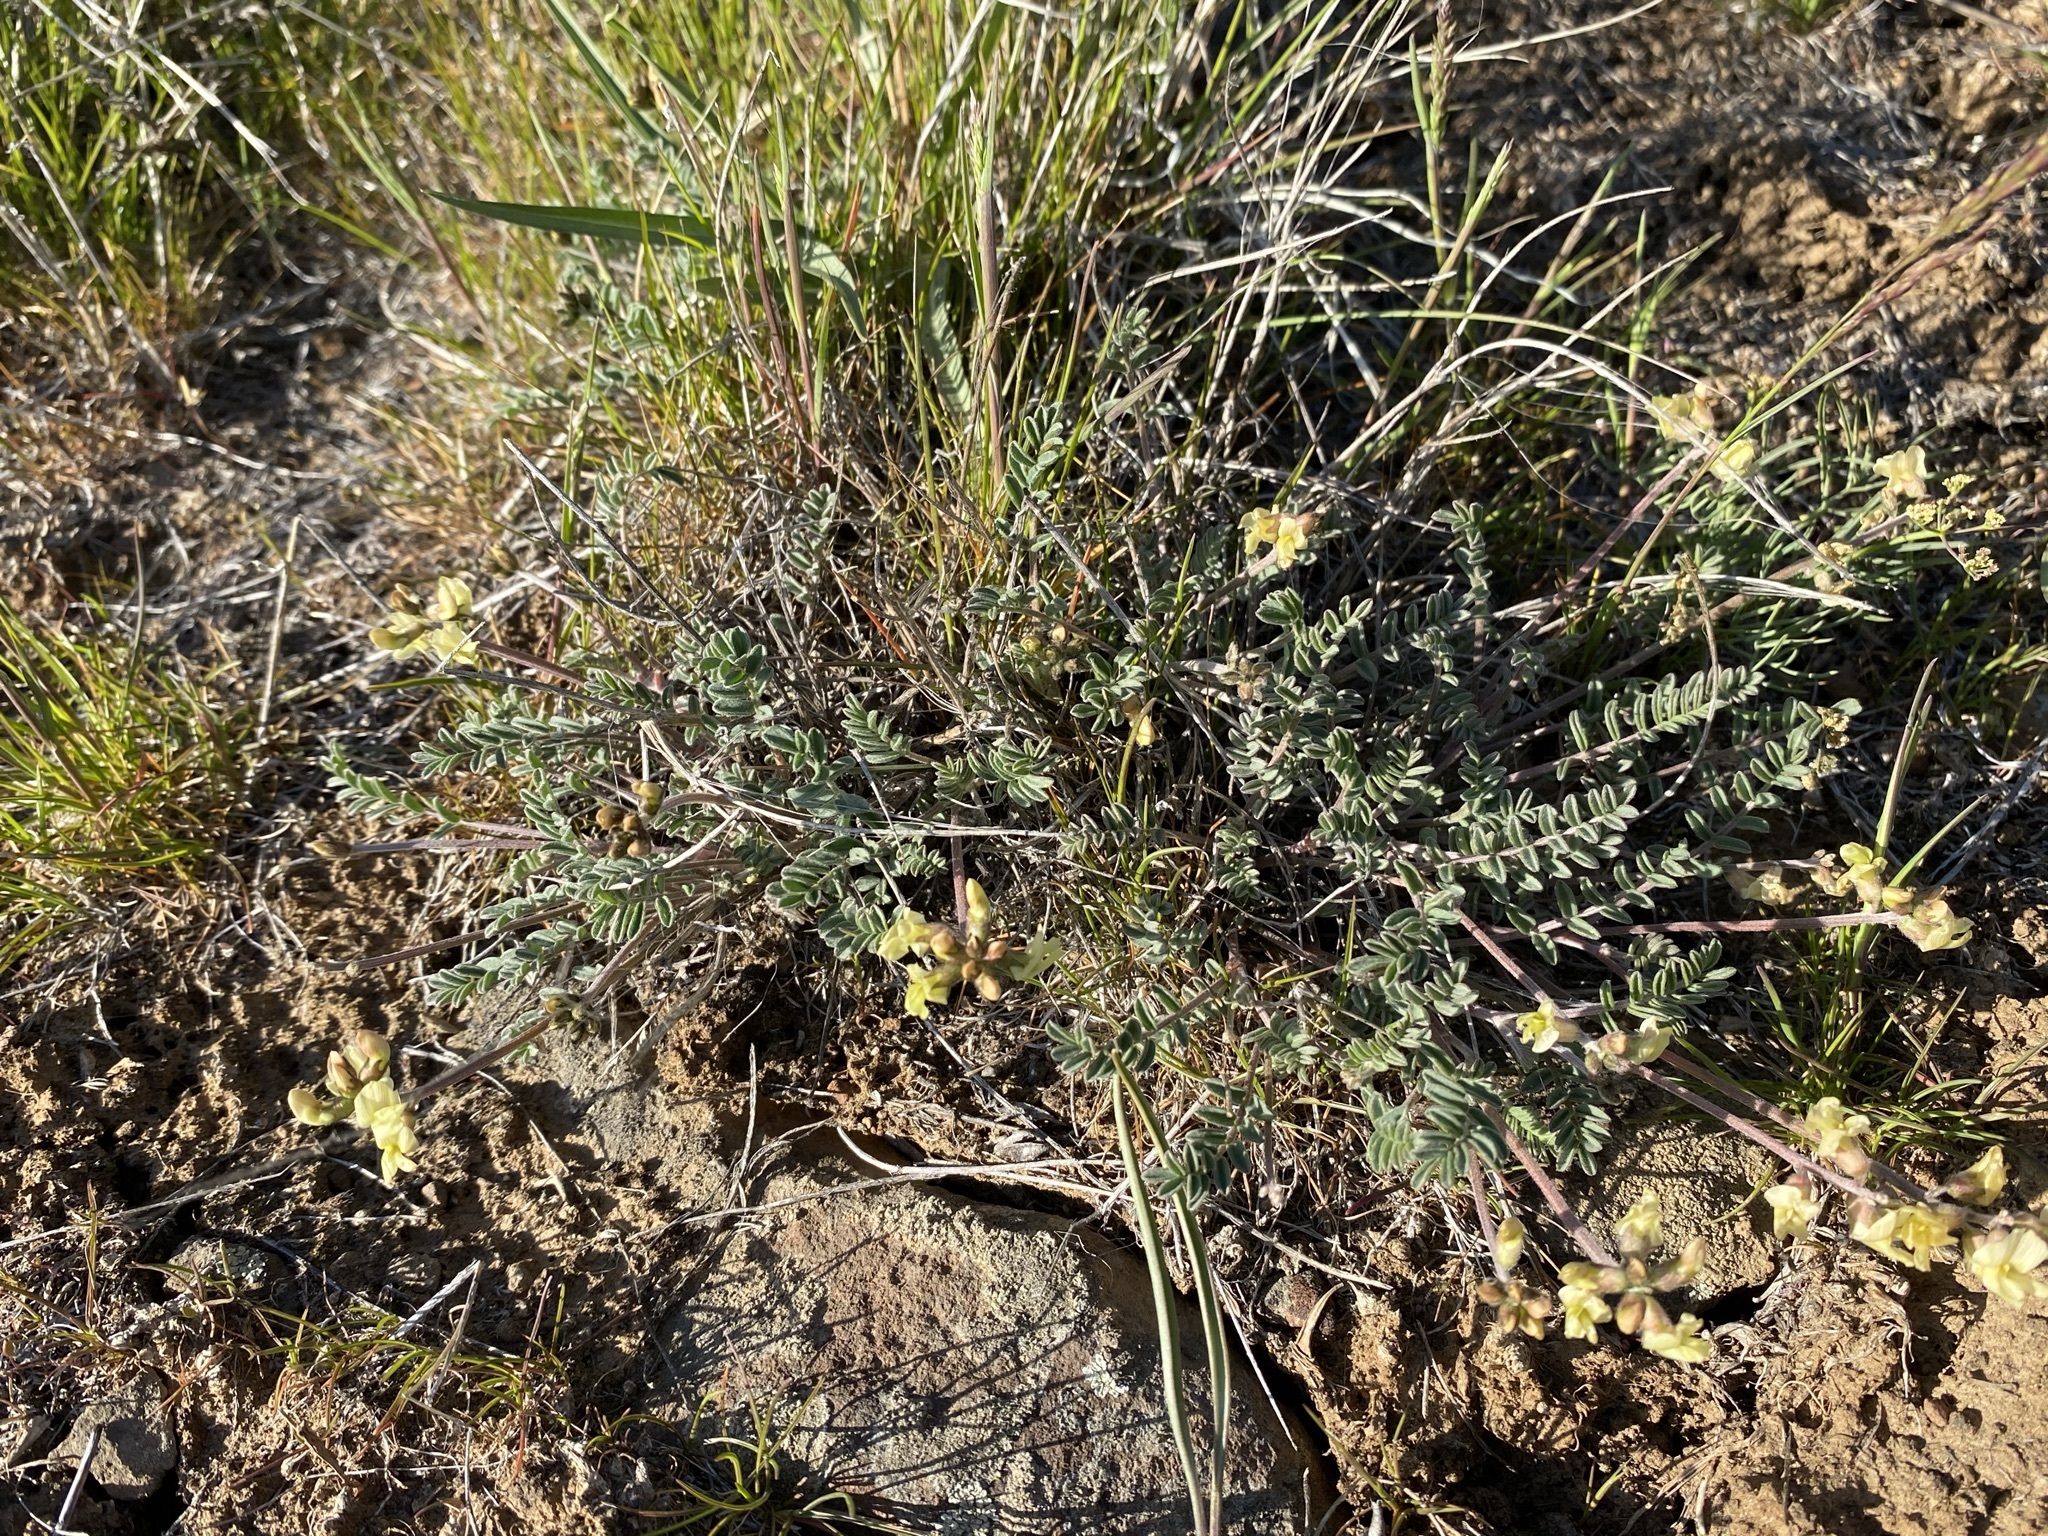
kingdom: Plantae
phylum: Tracheophyta
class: Magnoliopsida
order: Fabales
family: Fabaceae
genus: Astragalus
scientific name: Astragalus misellus
